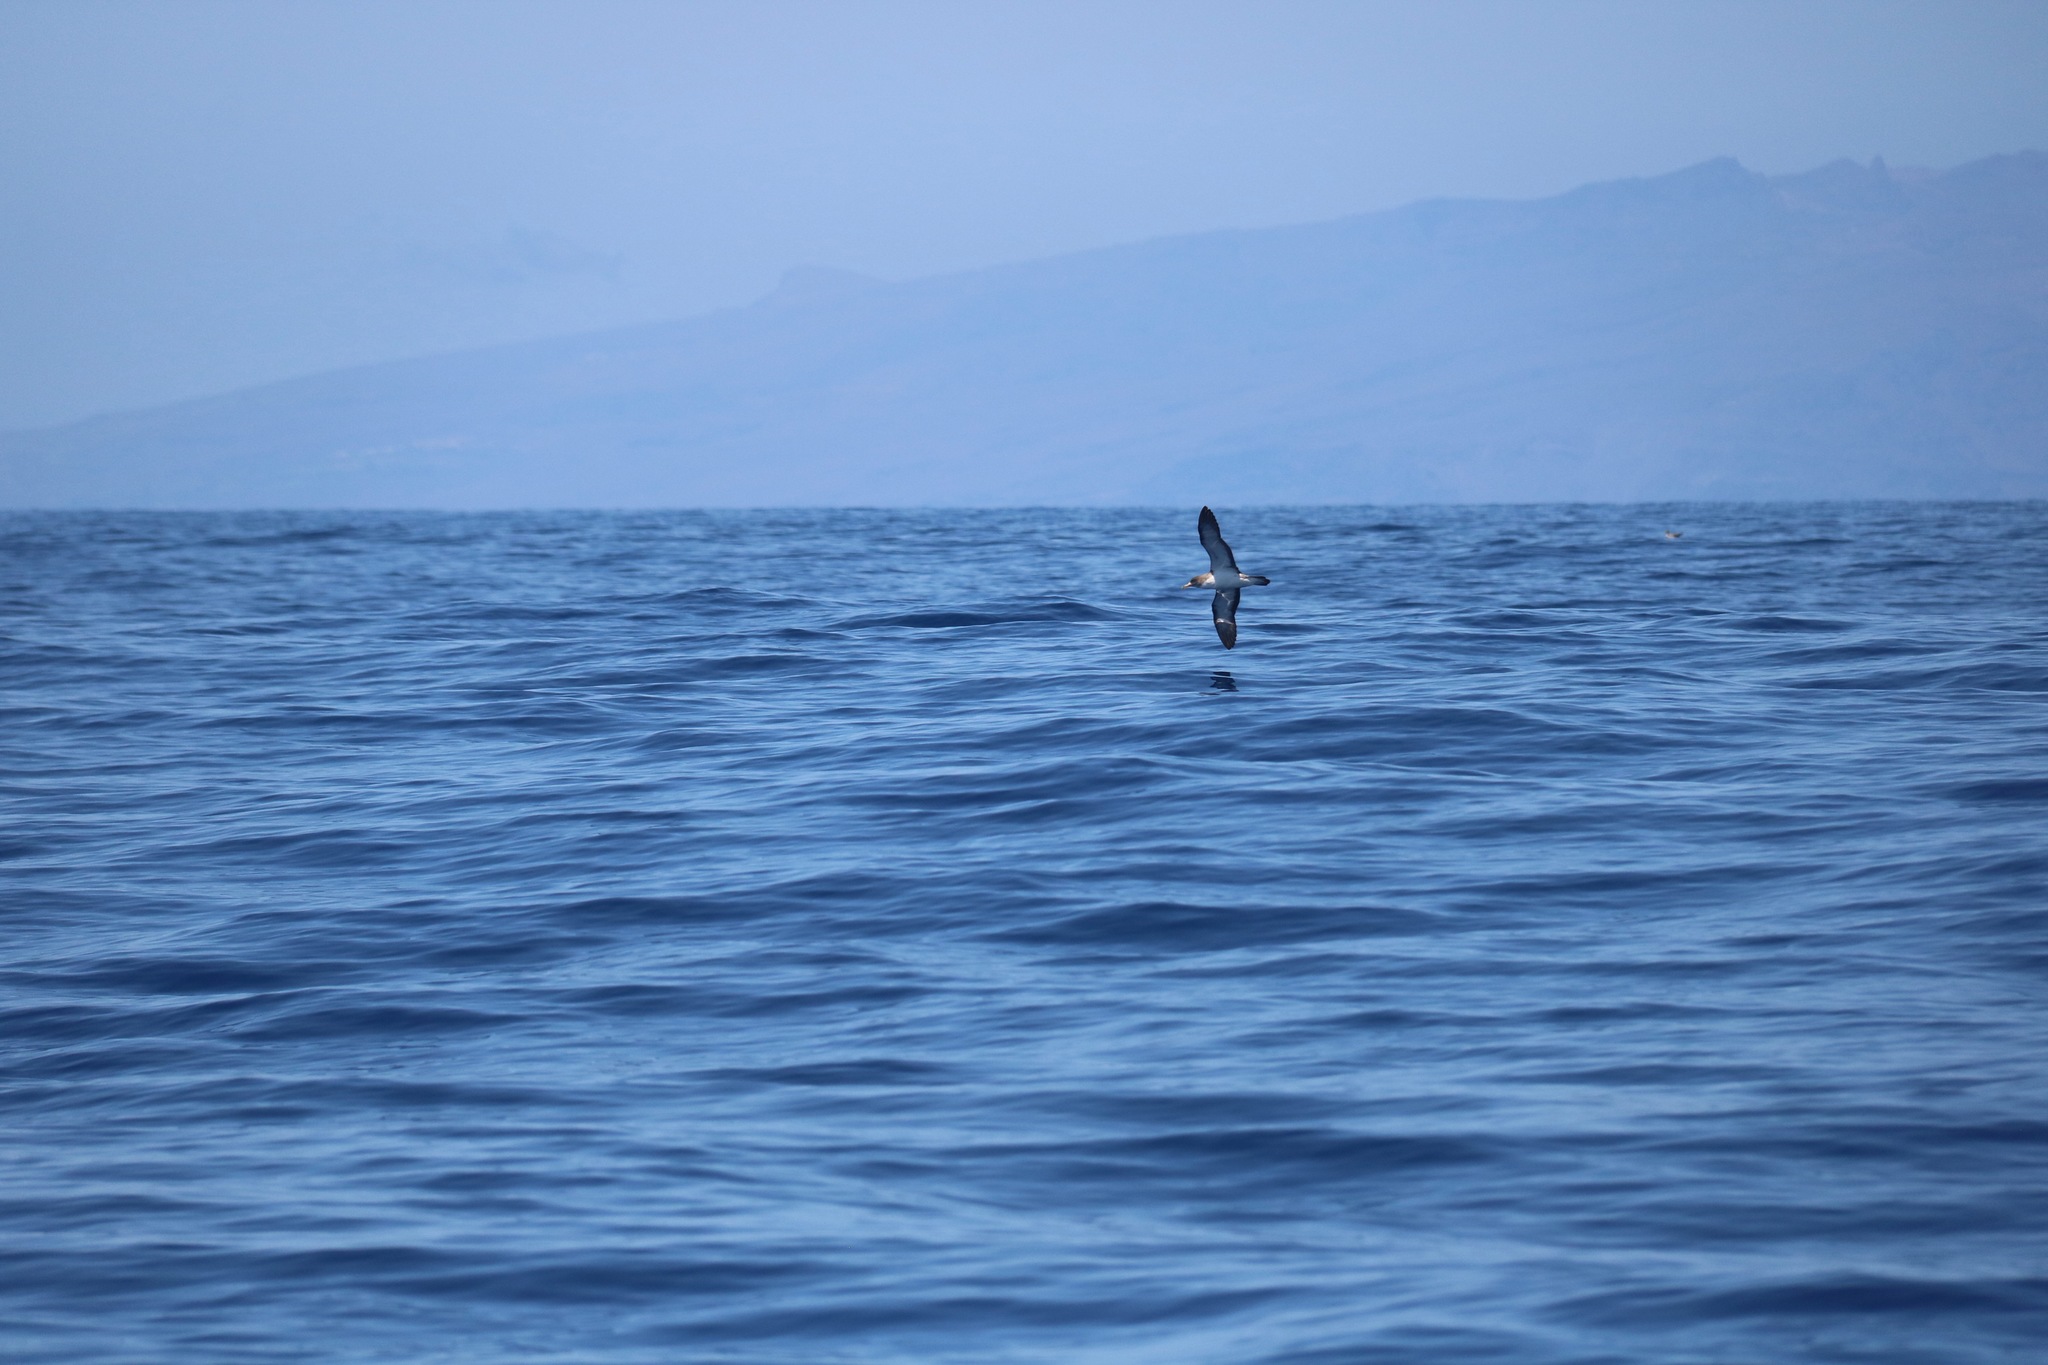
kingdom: Animalia
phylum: Chordata
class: Aves
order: Procellariiformes
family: Procellariidae
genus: Calonectris
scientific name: Calonectris diomedea
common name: Cory's shearwater
